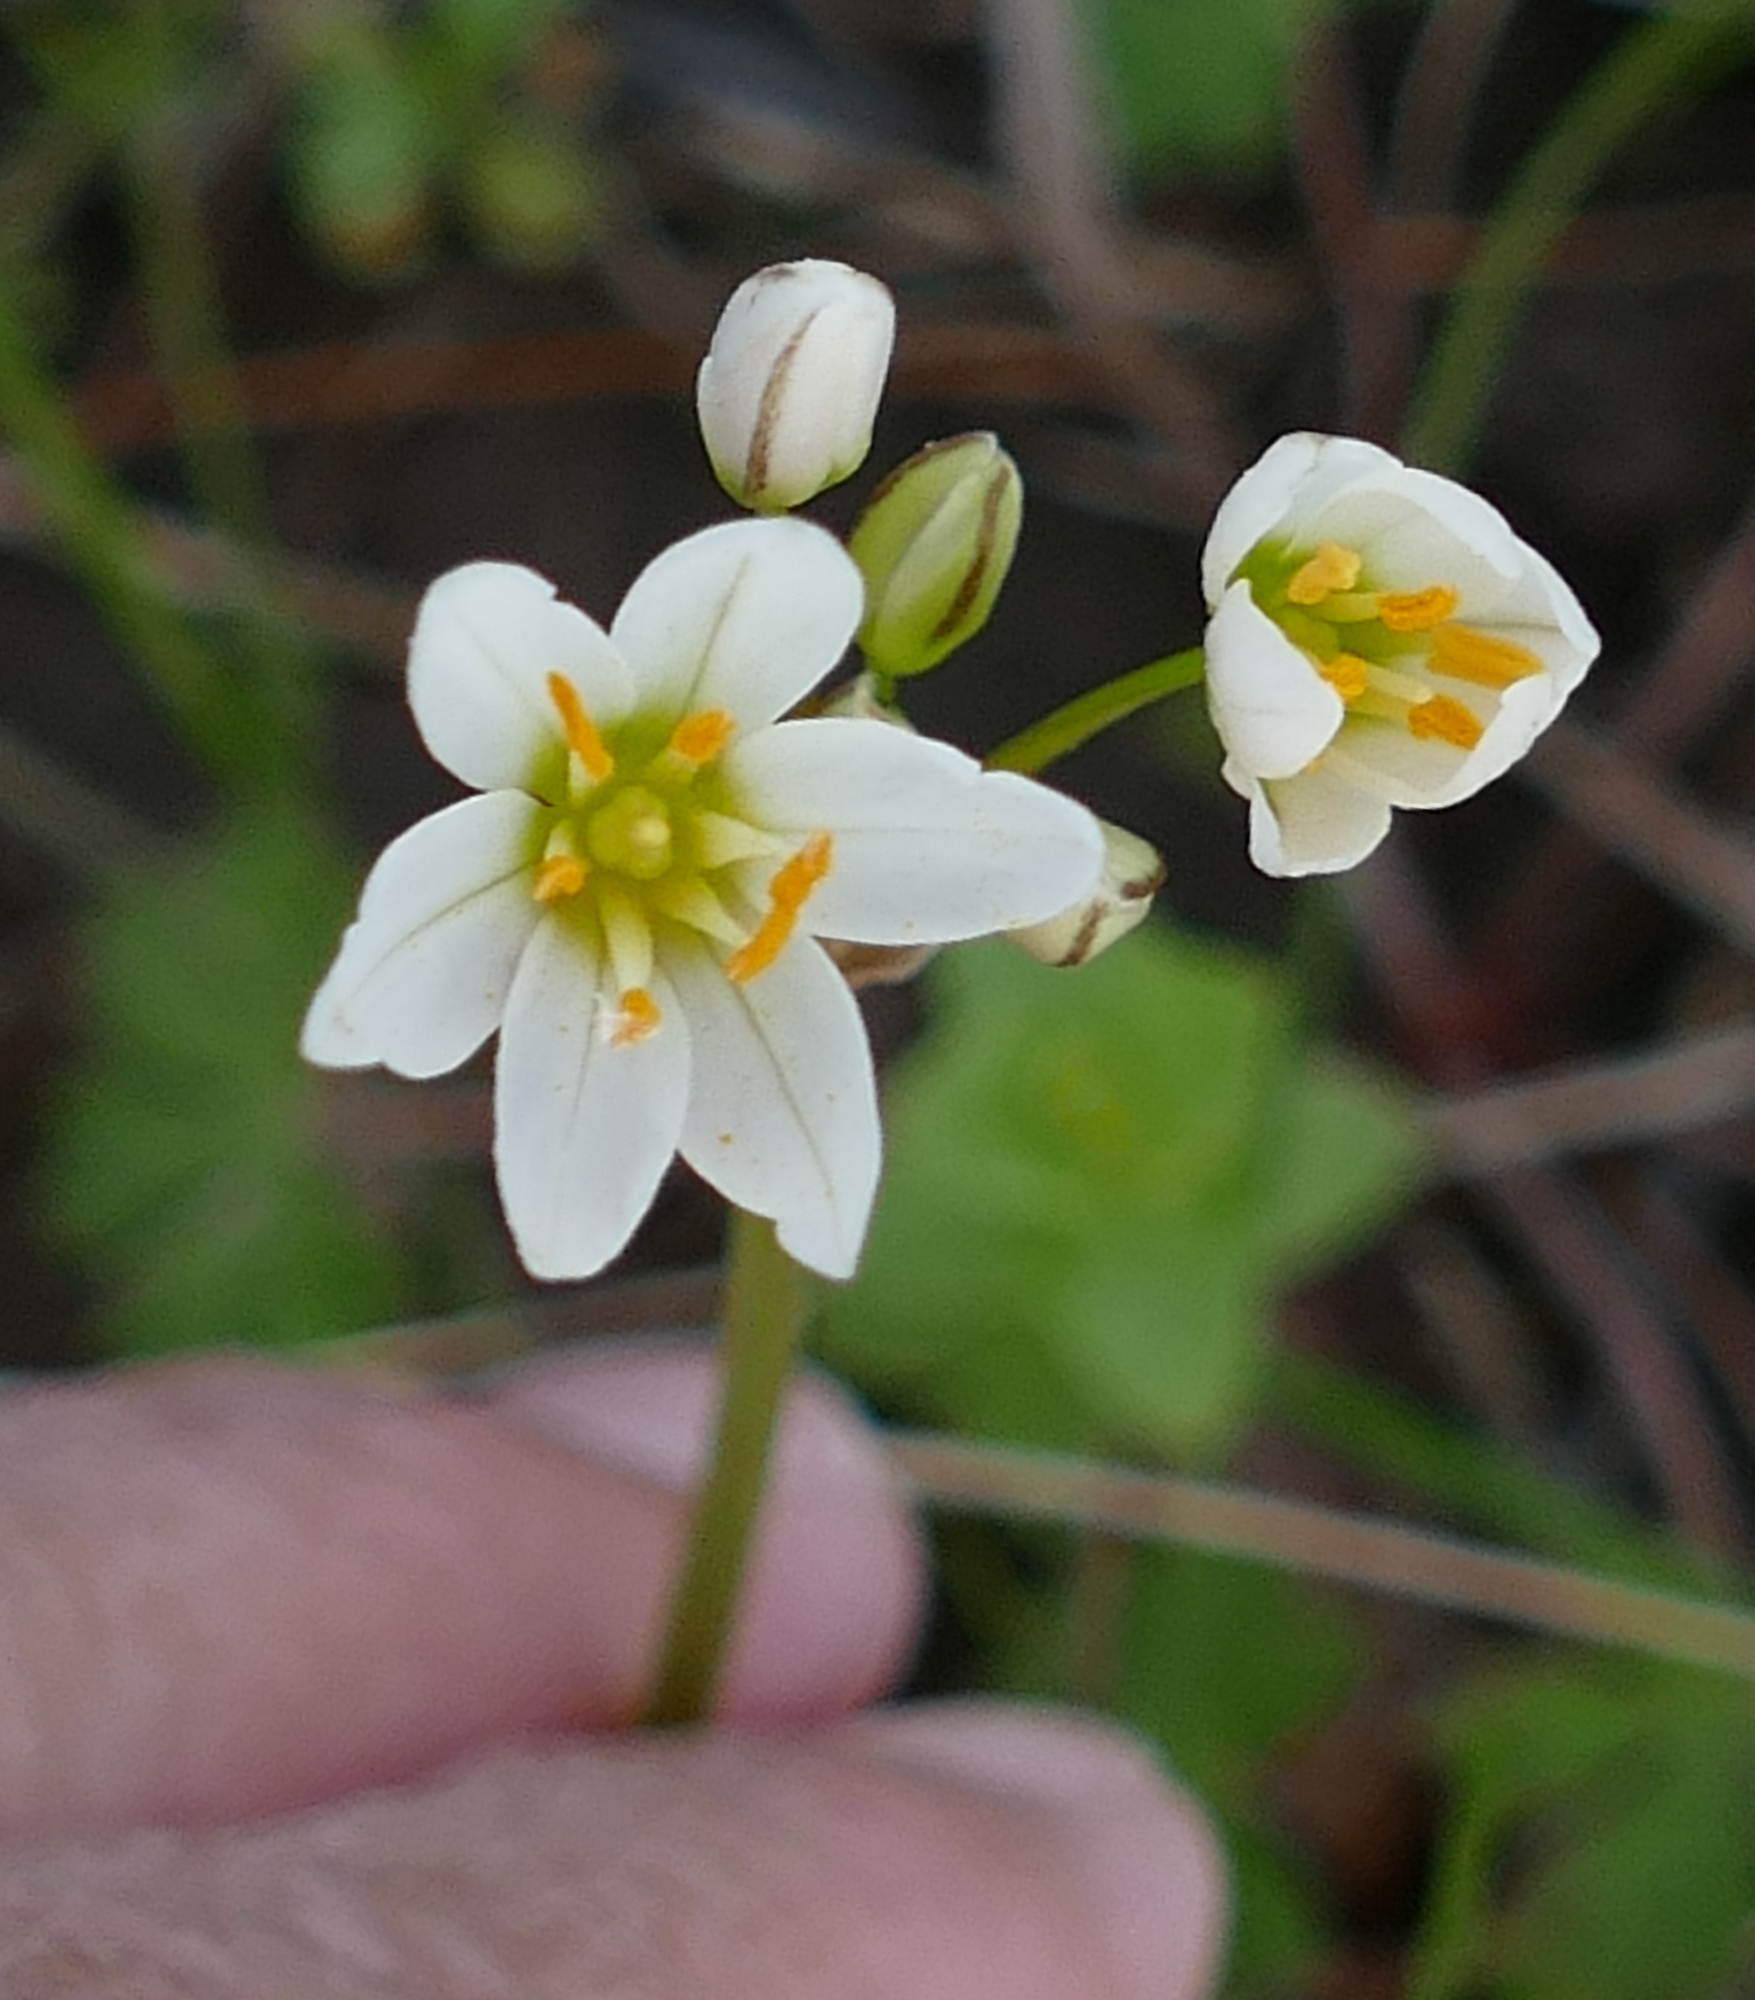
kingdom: Plantae
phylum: Tracheophyta
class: Liliopsida
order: Asparagales
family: Amaryllidaceae
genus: Nothoscordum
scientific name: Nothoscordum bivalve
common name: Crow-poison
